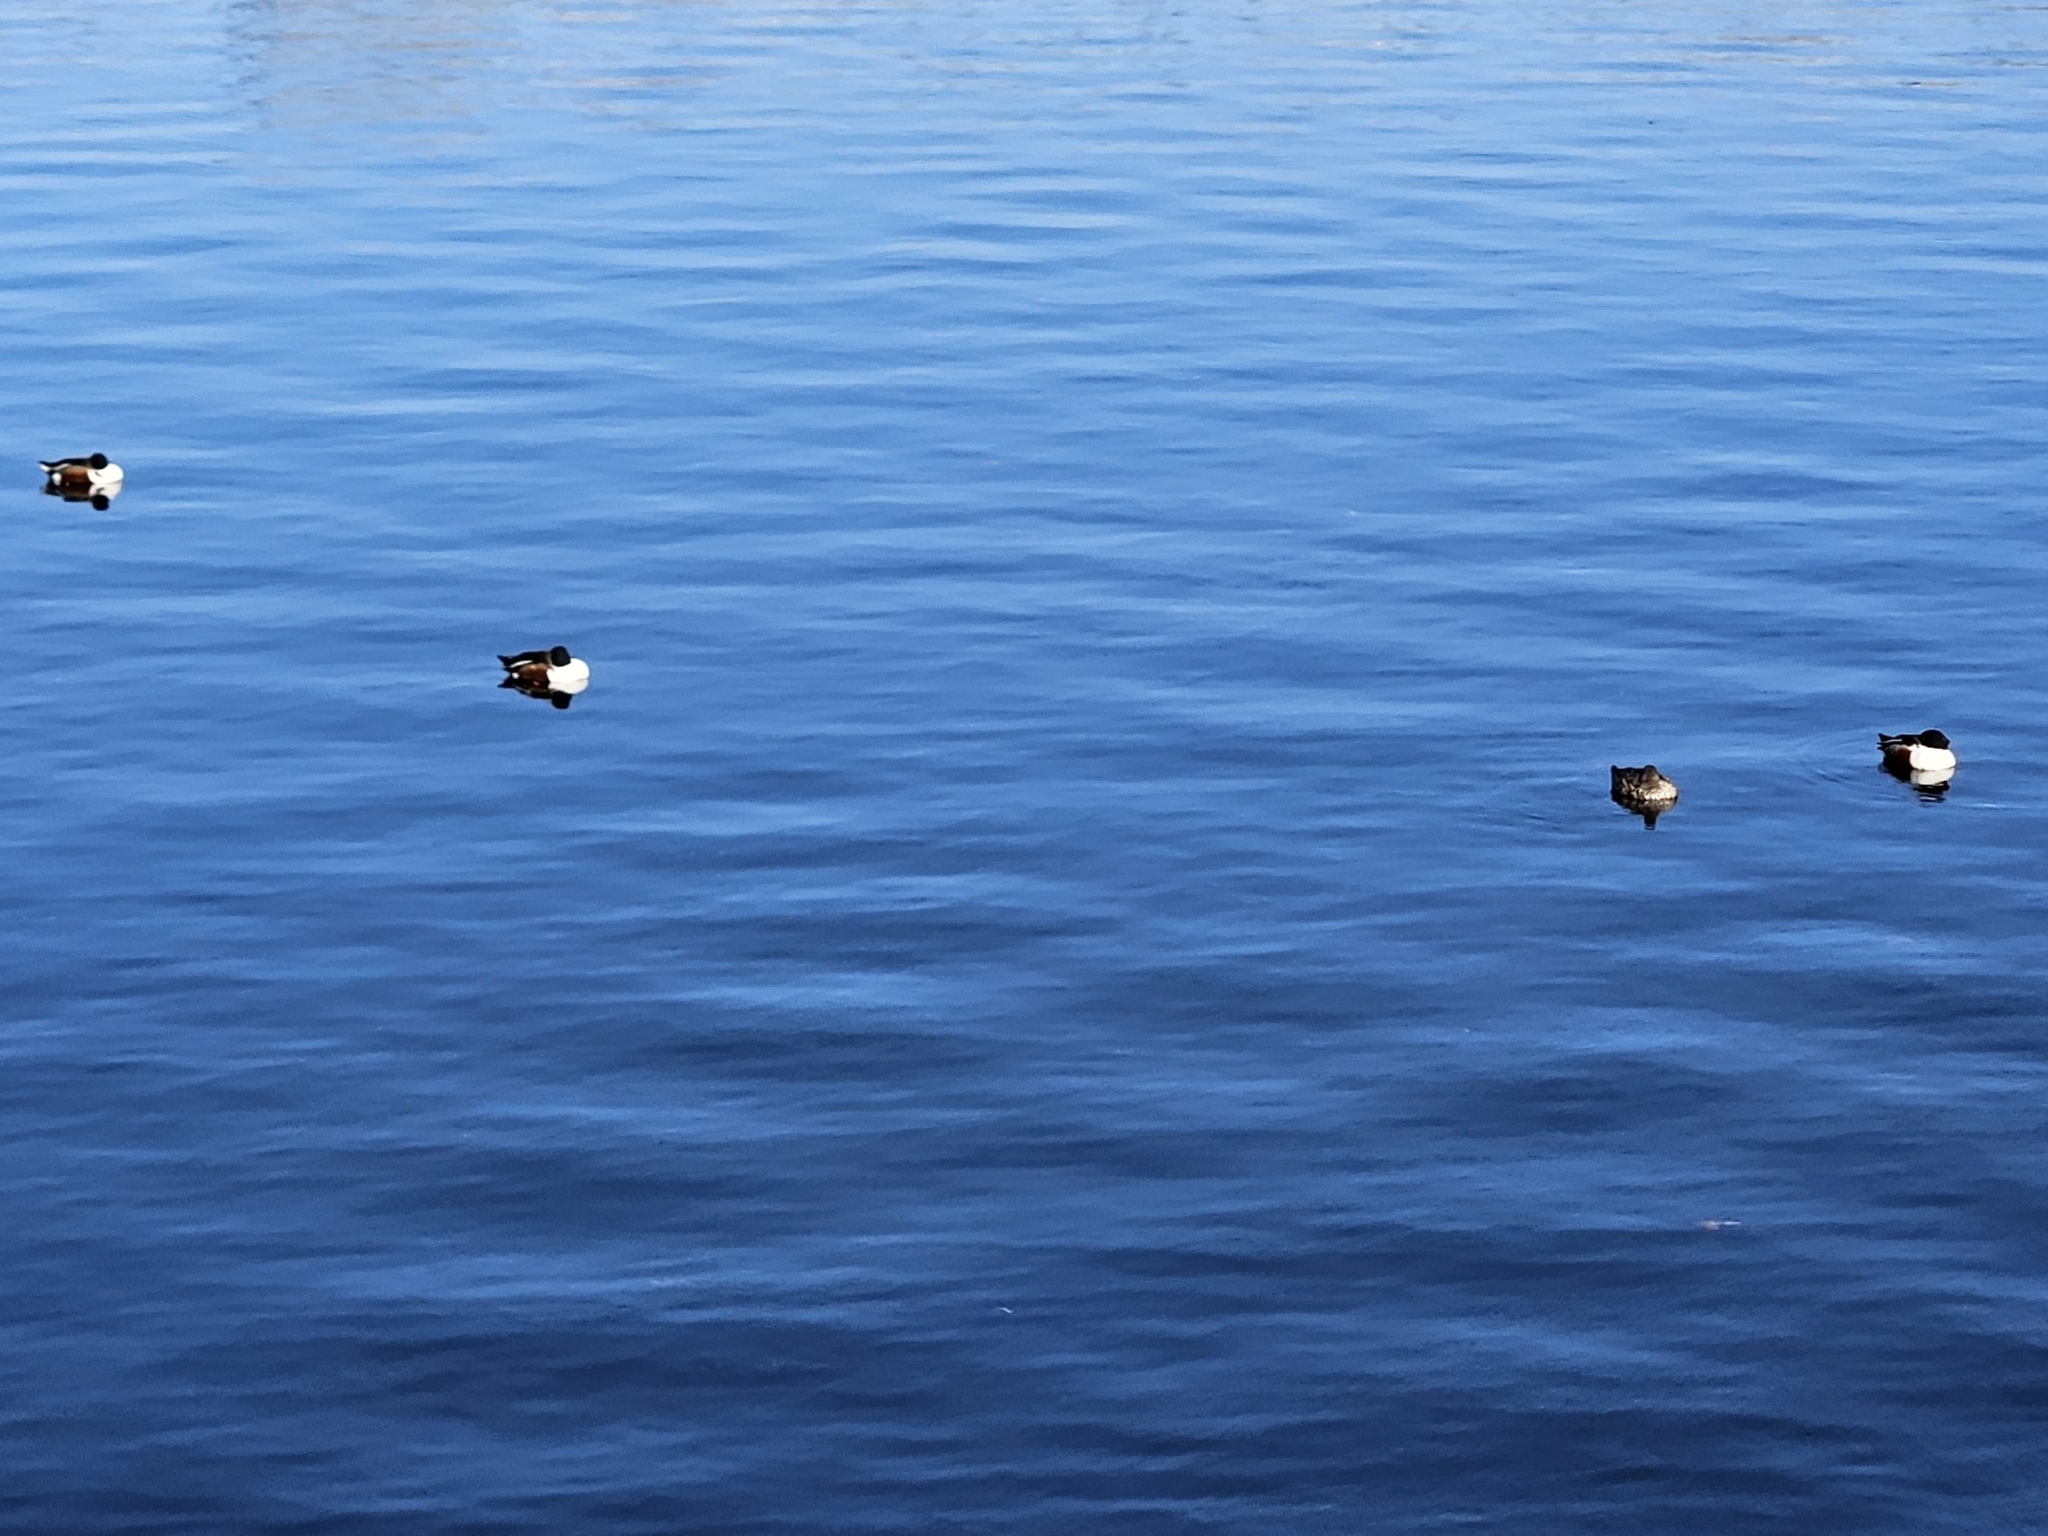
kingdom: Animalia
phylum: Chordata
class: Aves
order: Anseriformes
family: Anatidae
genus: Spatula
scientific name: Spatula clypeata
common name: Northern shoveler
